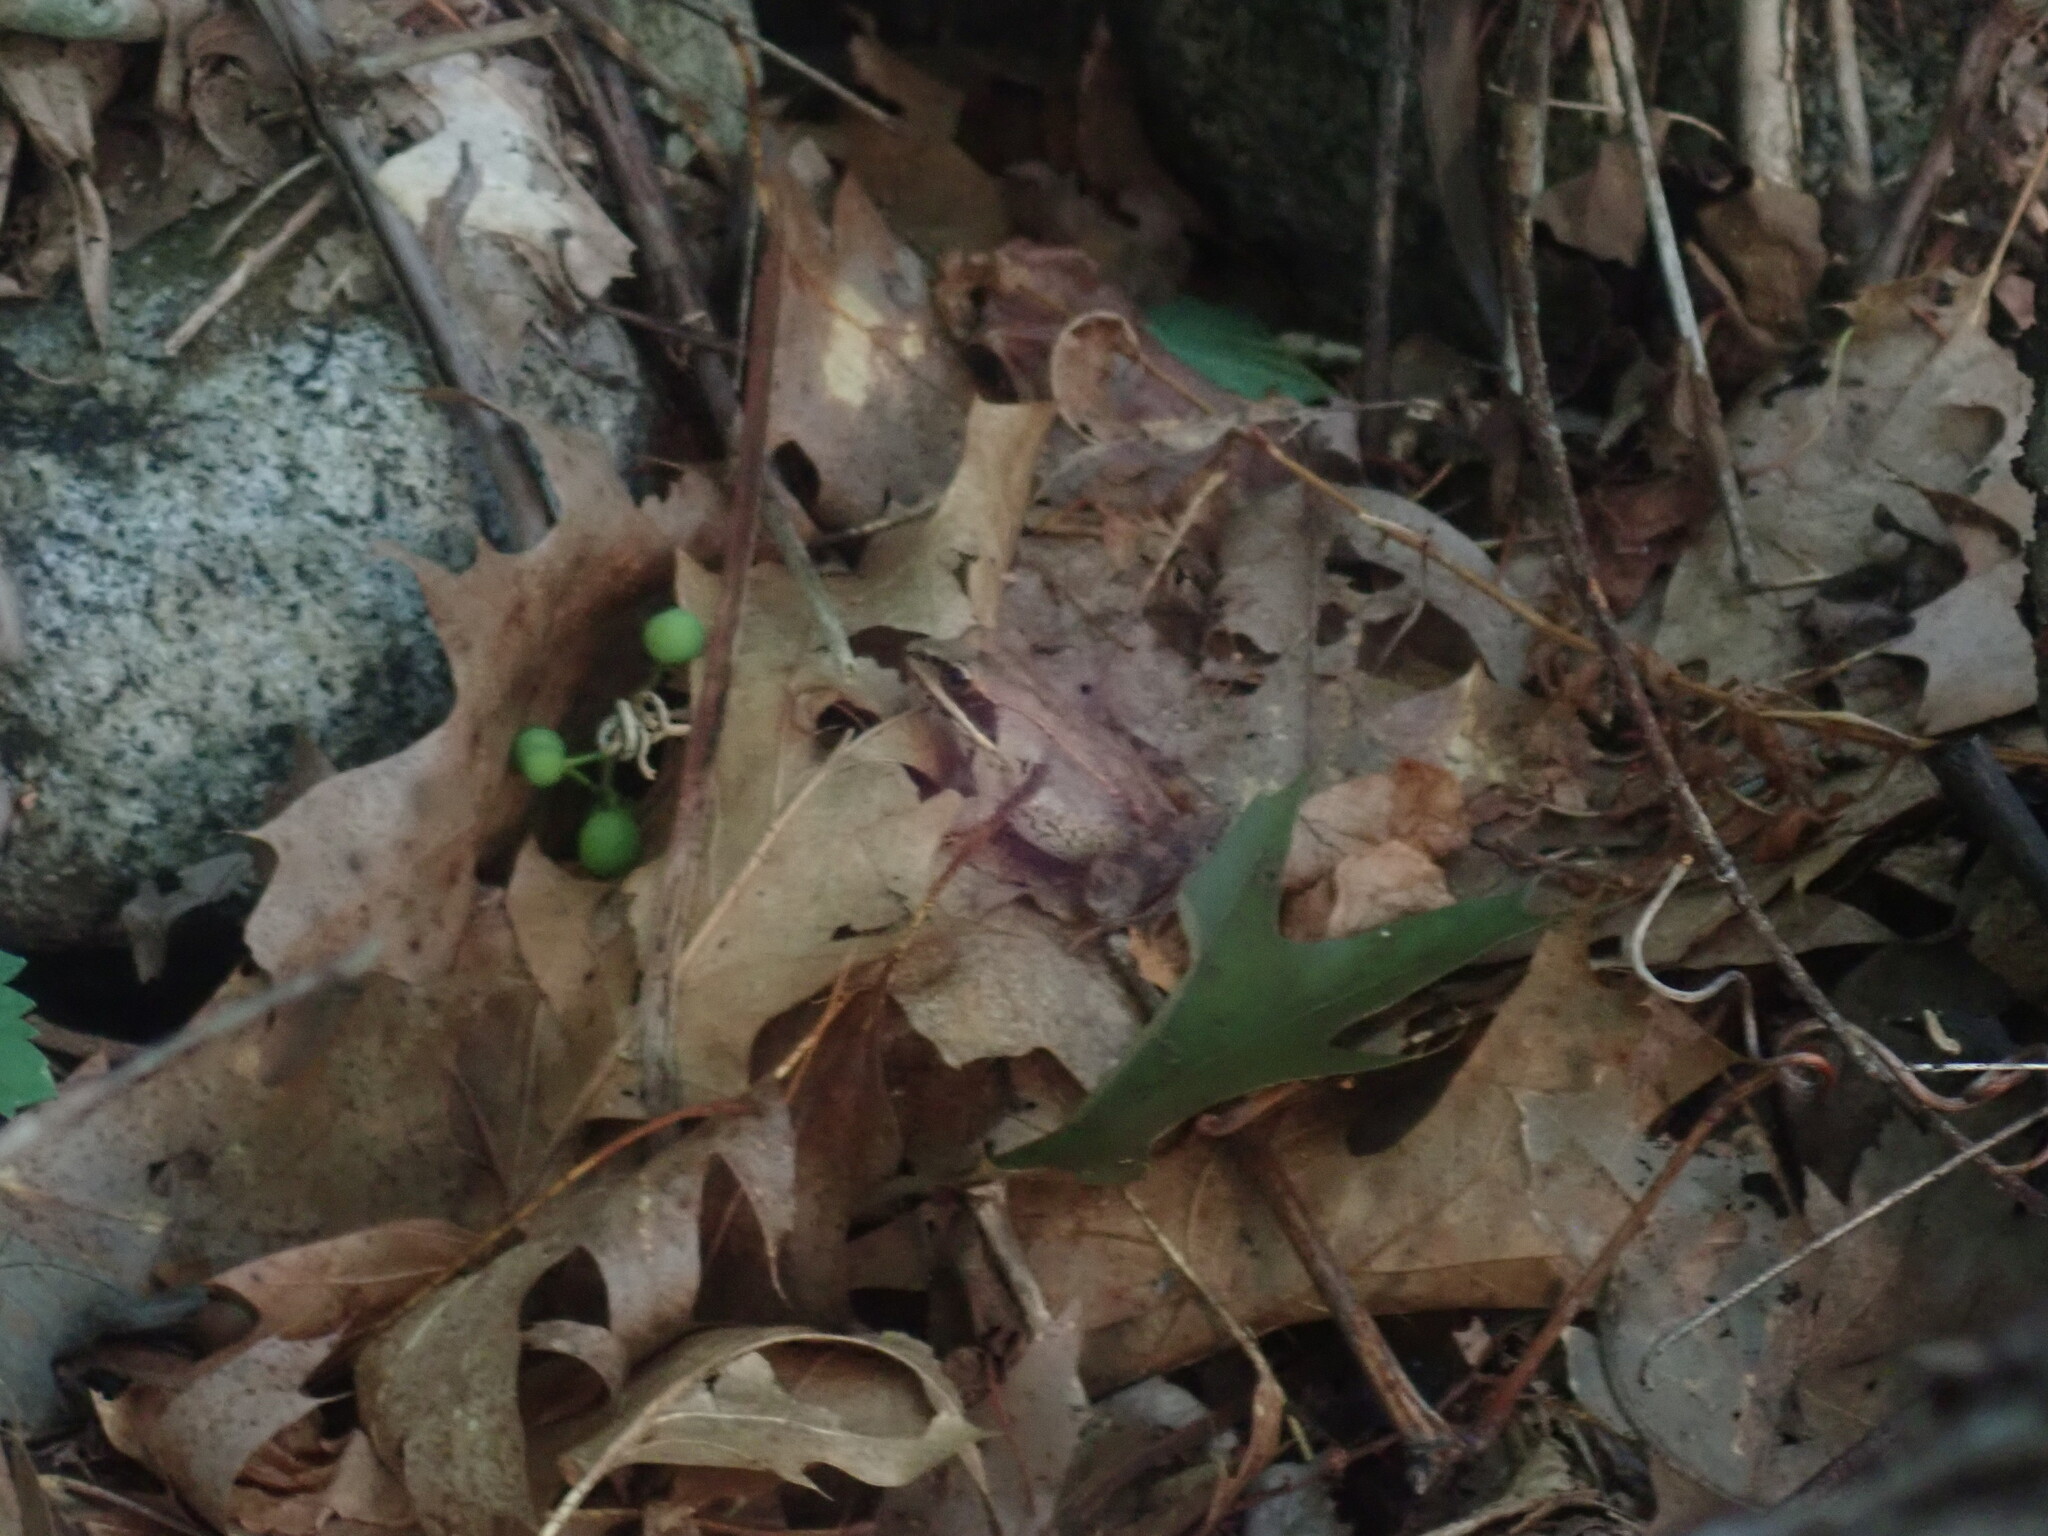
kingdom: Animalia
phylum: Chordata
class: Amphibia
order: Anura
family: Ranidae
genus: Lithobates
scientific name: Lithobates sylvaticus
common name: Wood frog
